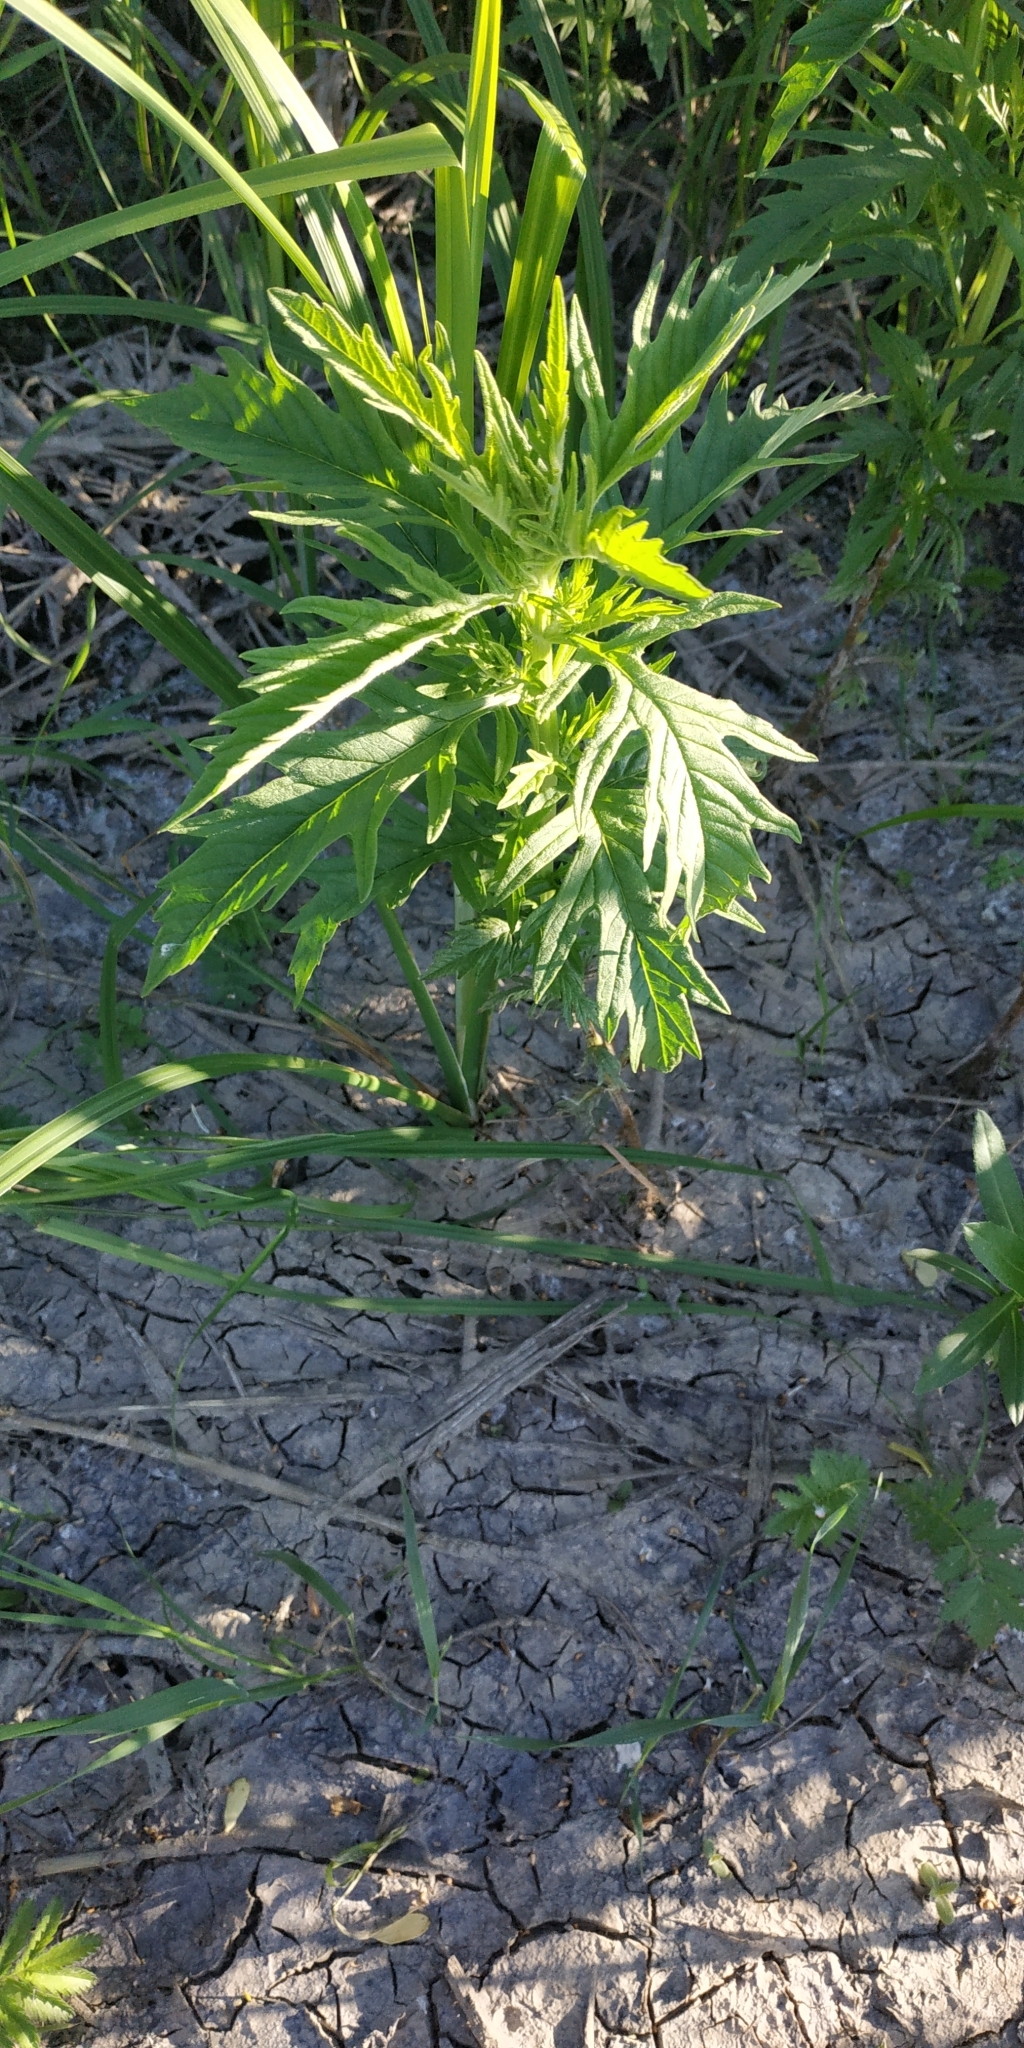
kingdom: Plantae
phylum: Tracheophyta
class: Magnoliopsida
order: Lamiales
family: Lamiaceae
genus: Lycopus
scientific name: Lycopus exaltatus
